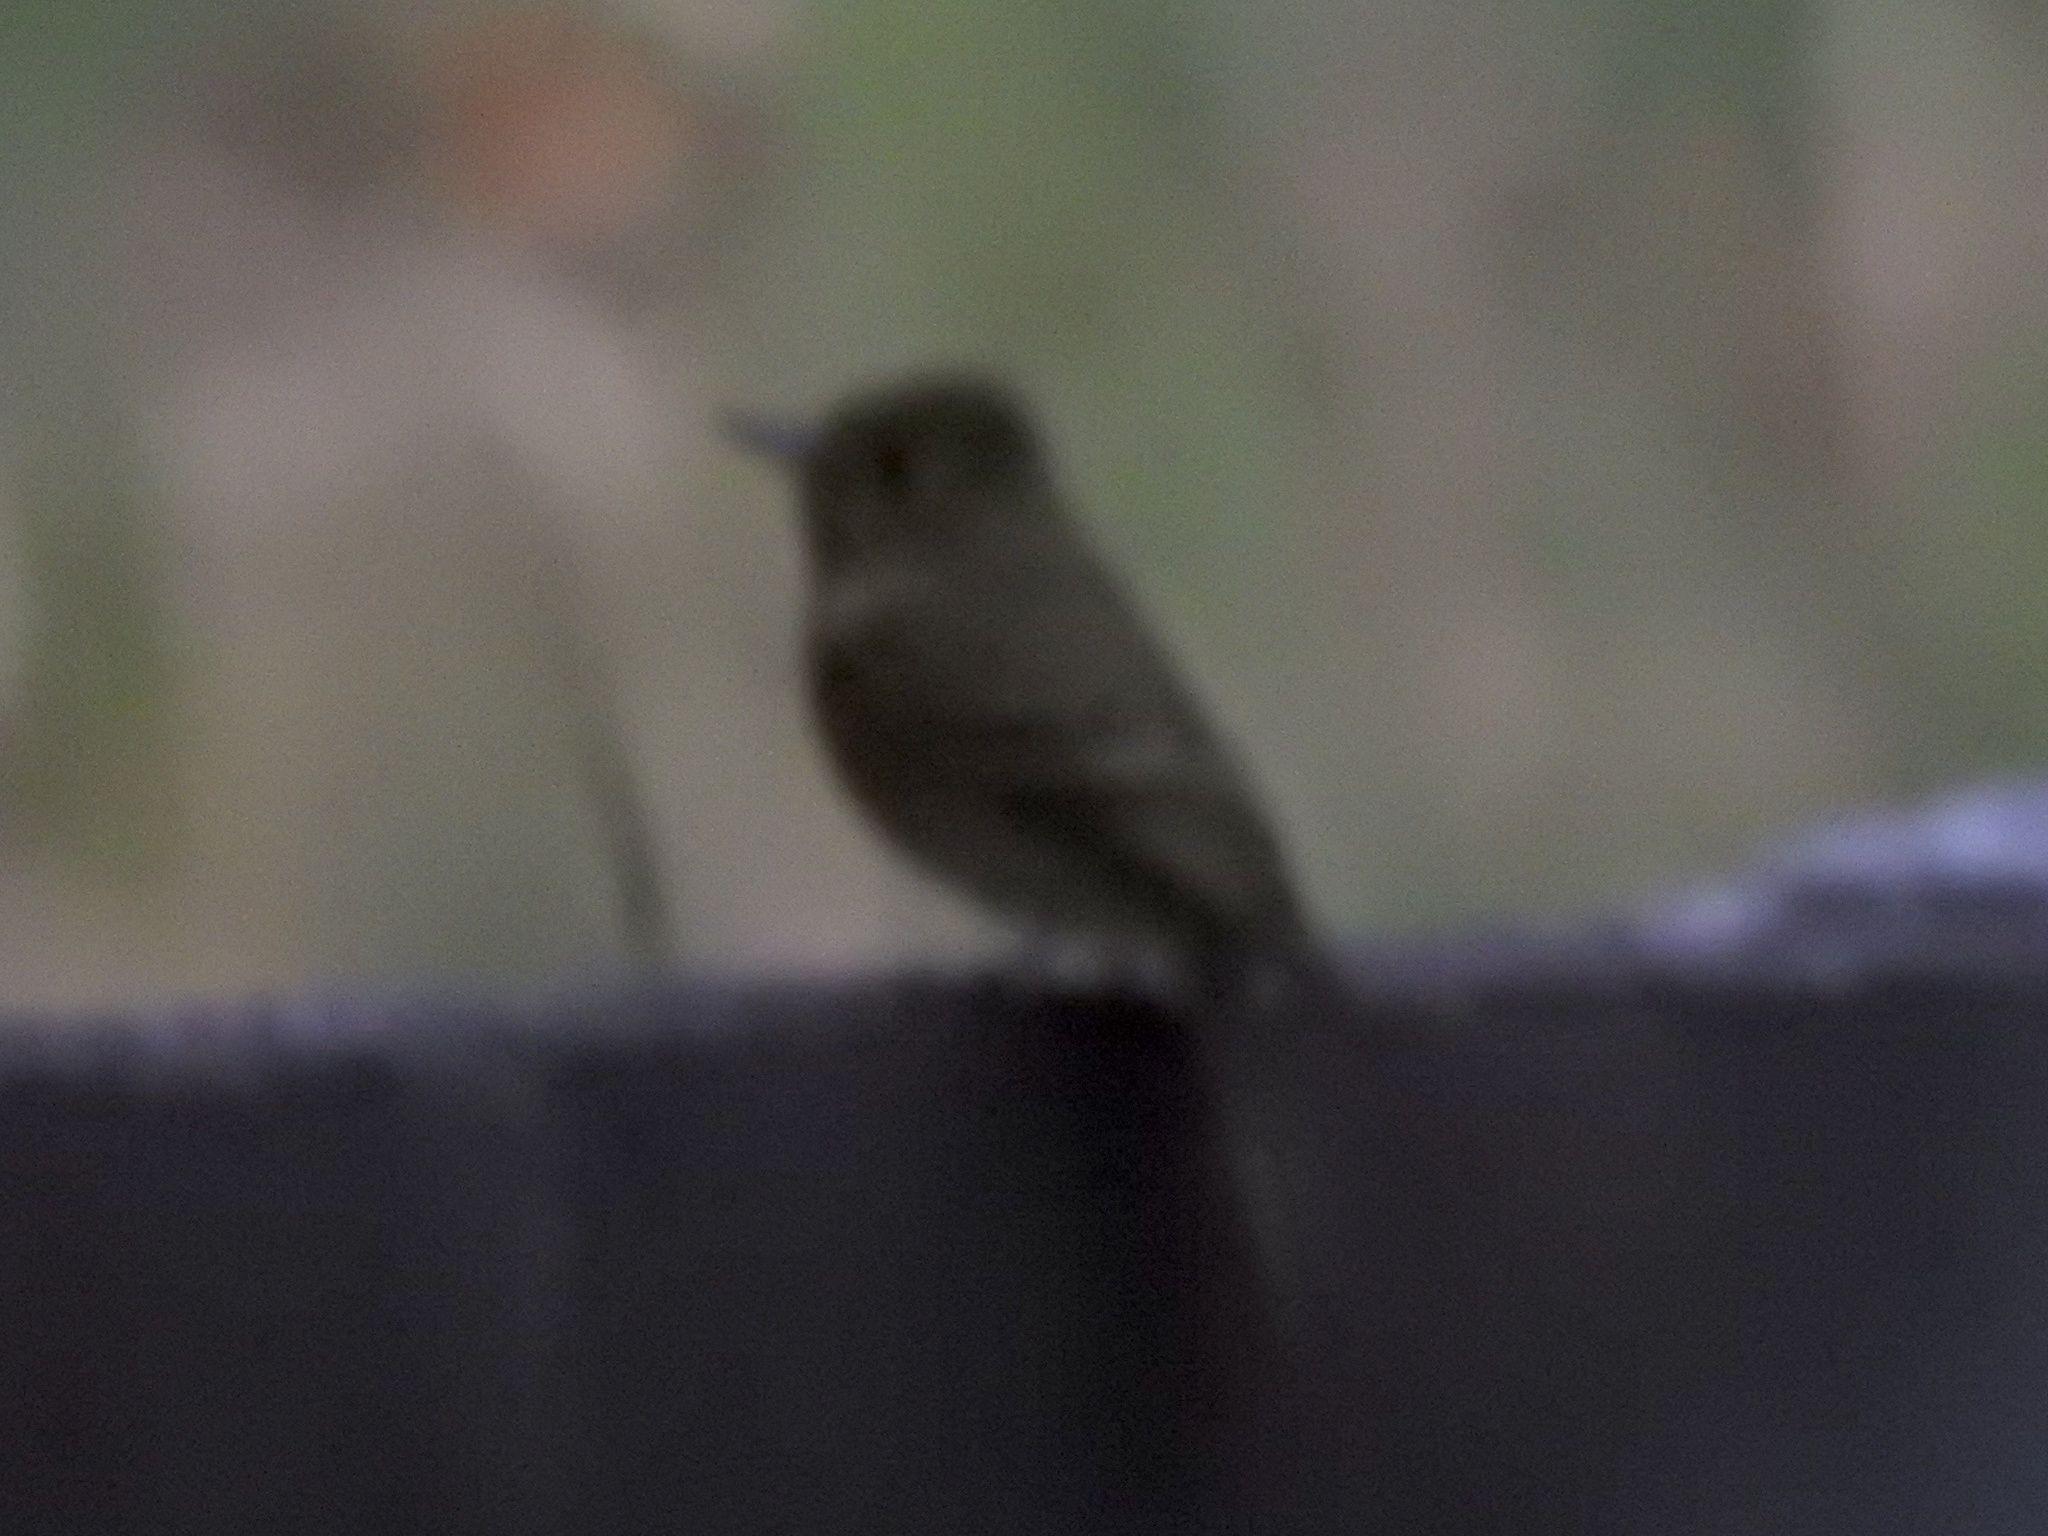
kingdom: Animalia
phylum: Chordata
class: Aves
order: Passeriformes
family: Tyrannidae
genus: Empidonax
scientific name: Empidonax difficilis
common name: Pacific-slope flycatcher
